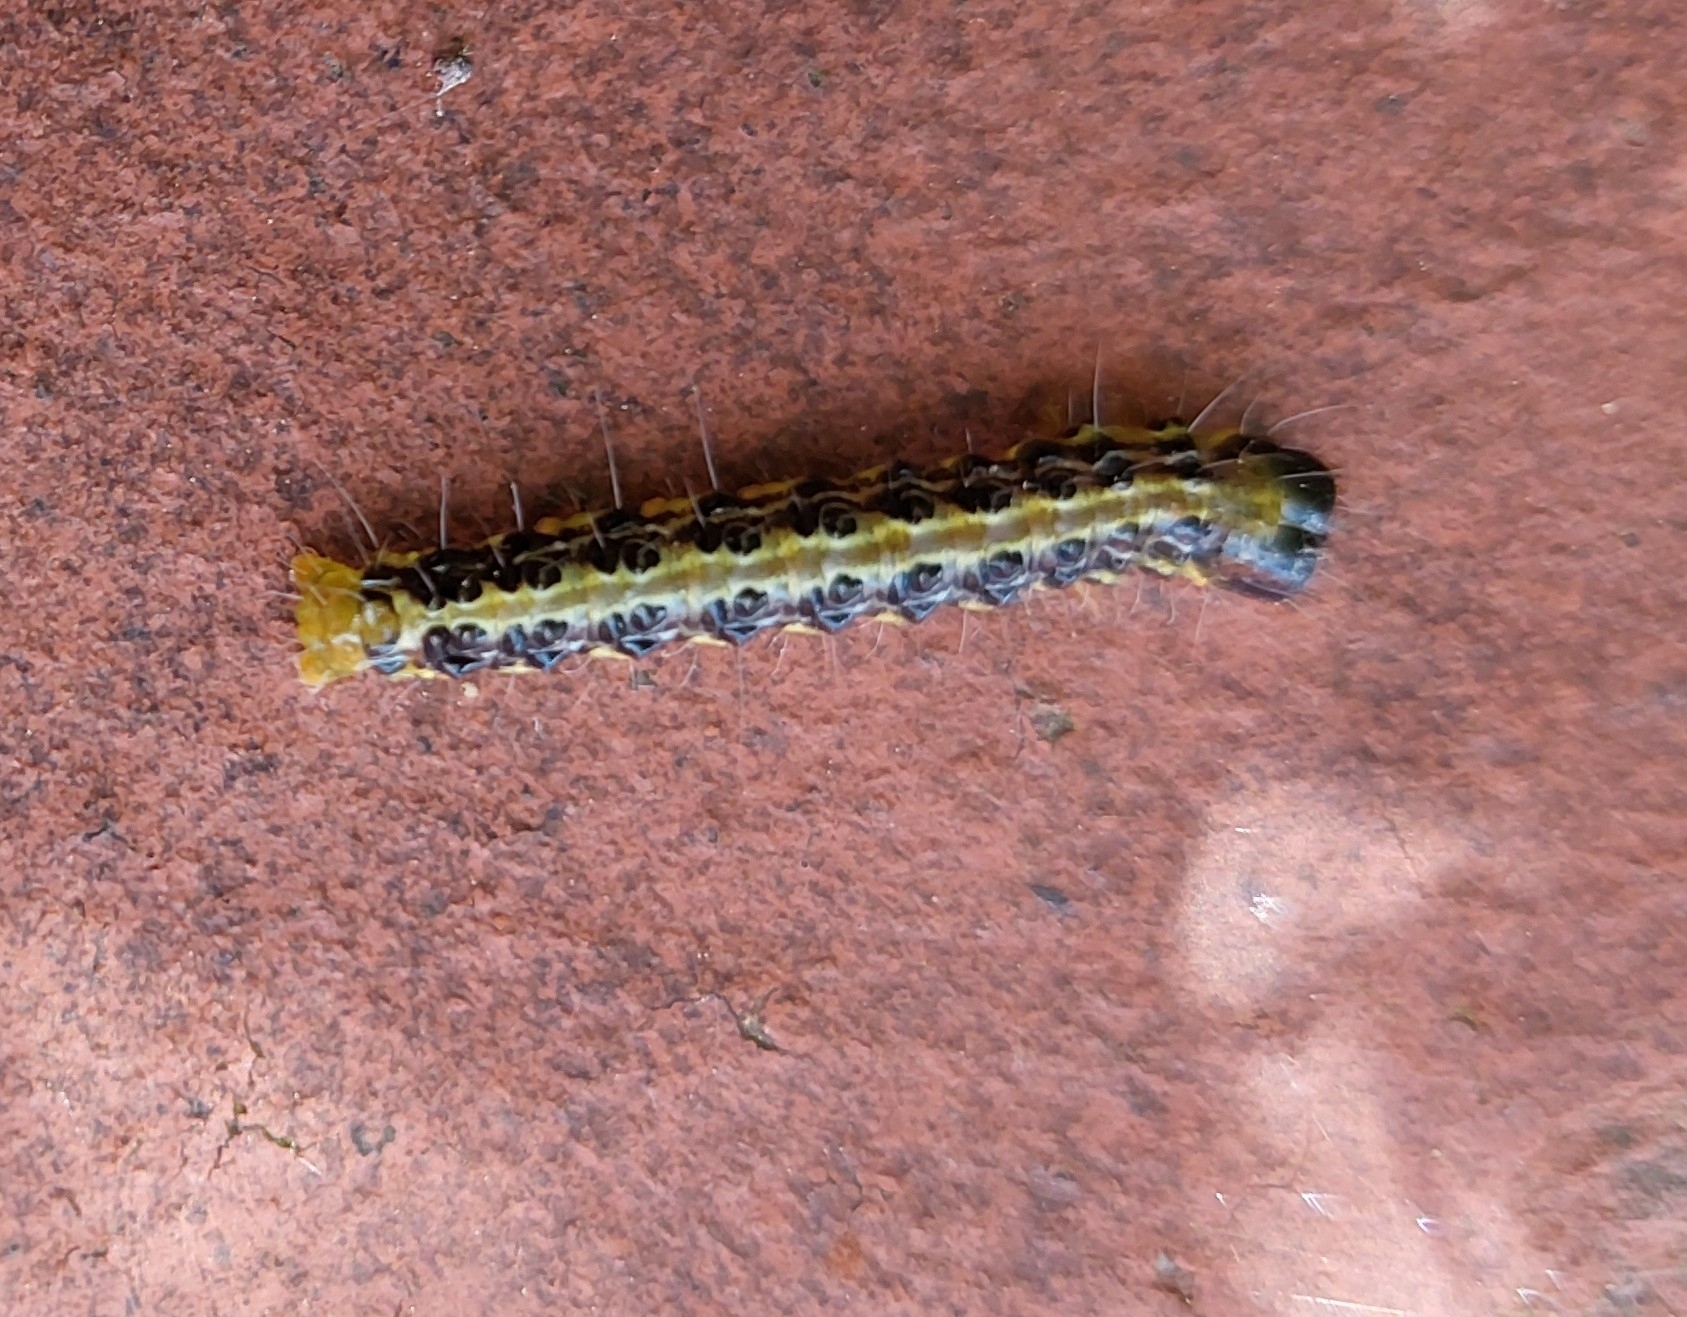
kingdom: Animalia
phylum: Arthropoda
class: Insecta
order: Lepidoptera
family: Crambidae
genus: Cydalima
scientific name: Cydalima perspectalis
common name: Box tree moth
